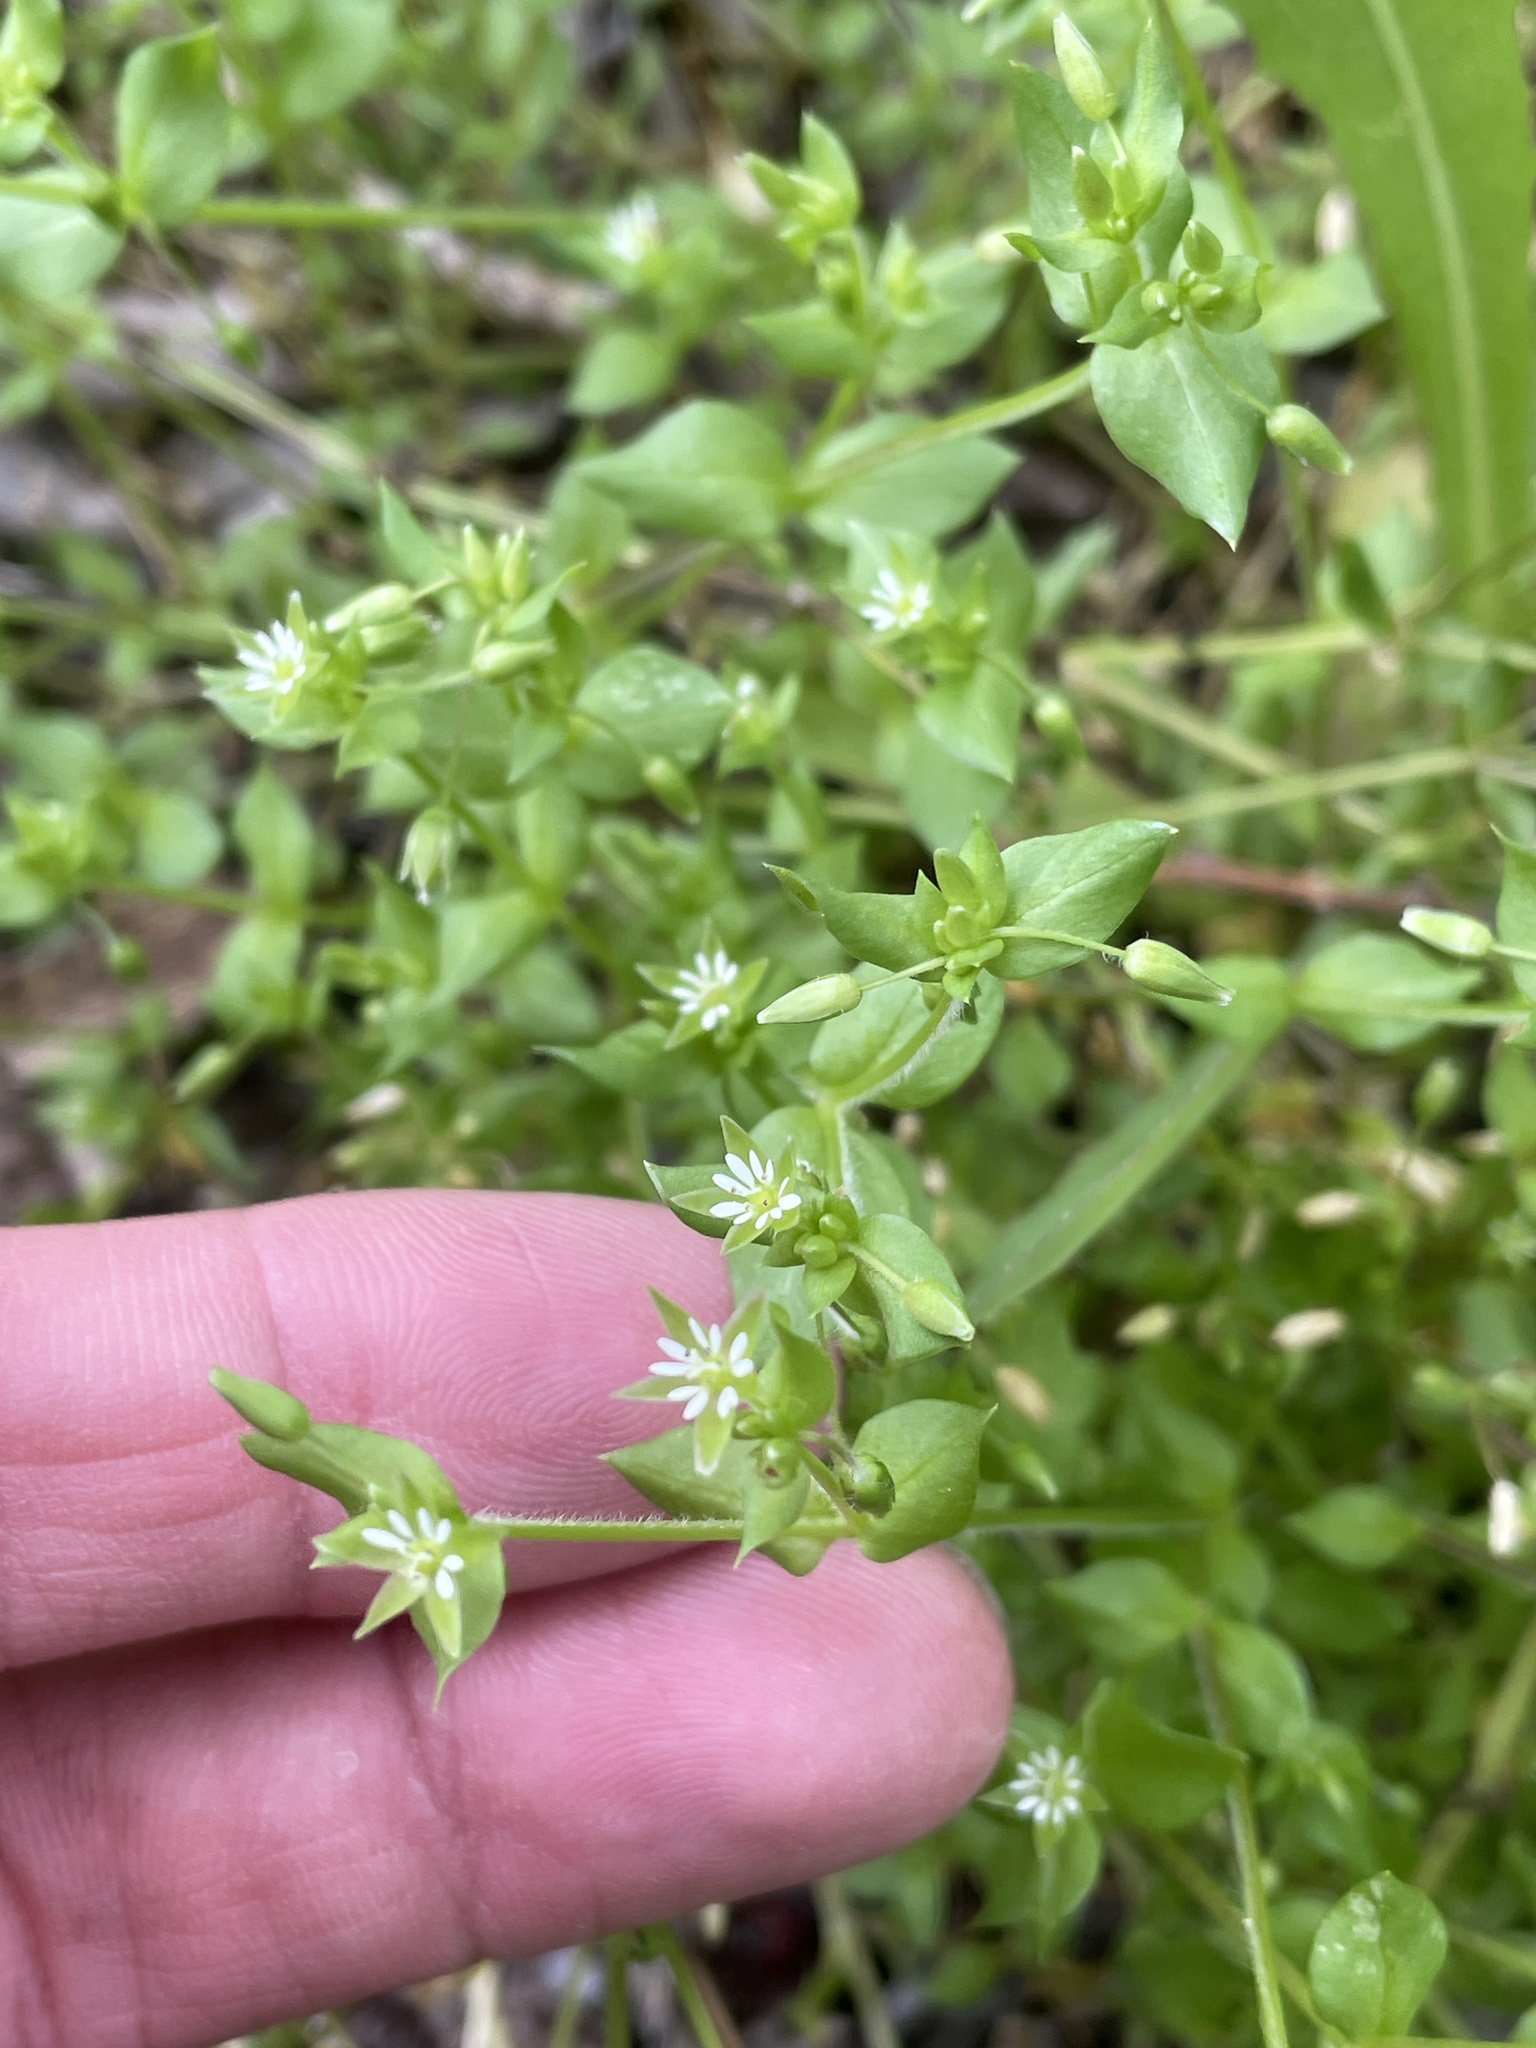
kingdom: Plantae
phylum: Tracheophyta
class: Magnoliopsida
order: Caryophyllales
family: Caryophyllaceae
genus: Stellaria
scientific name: Stellaria media
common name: Common chickweed
